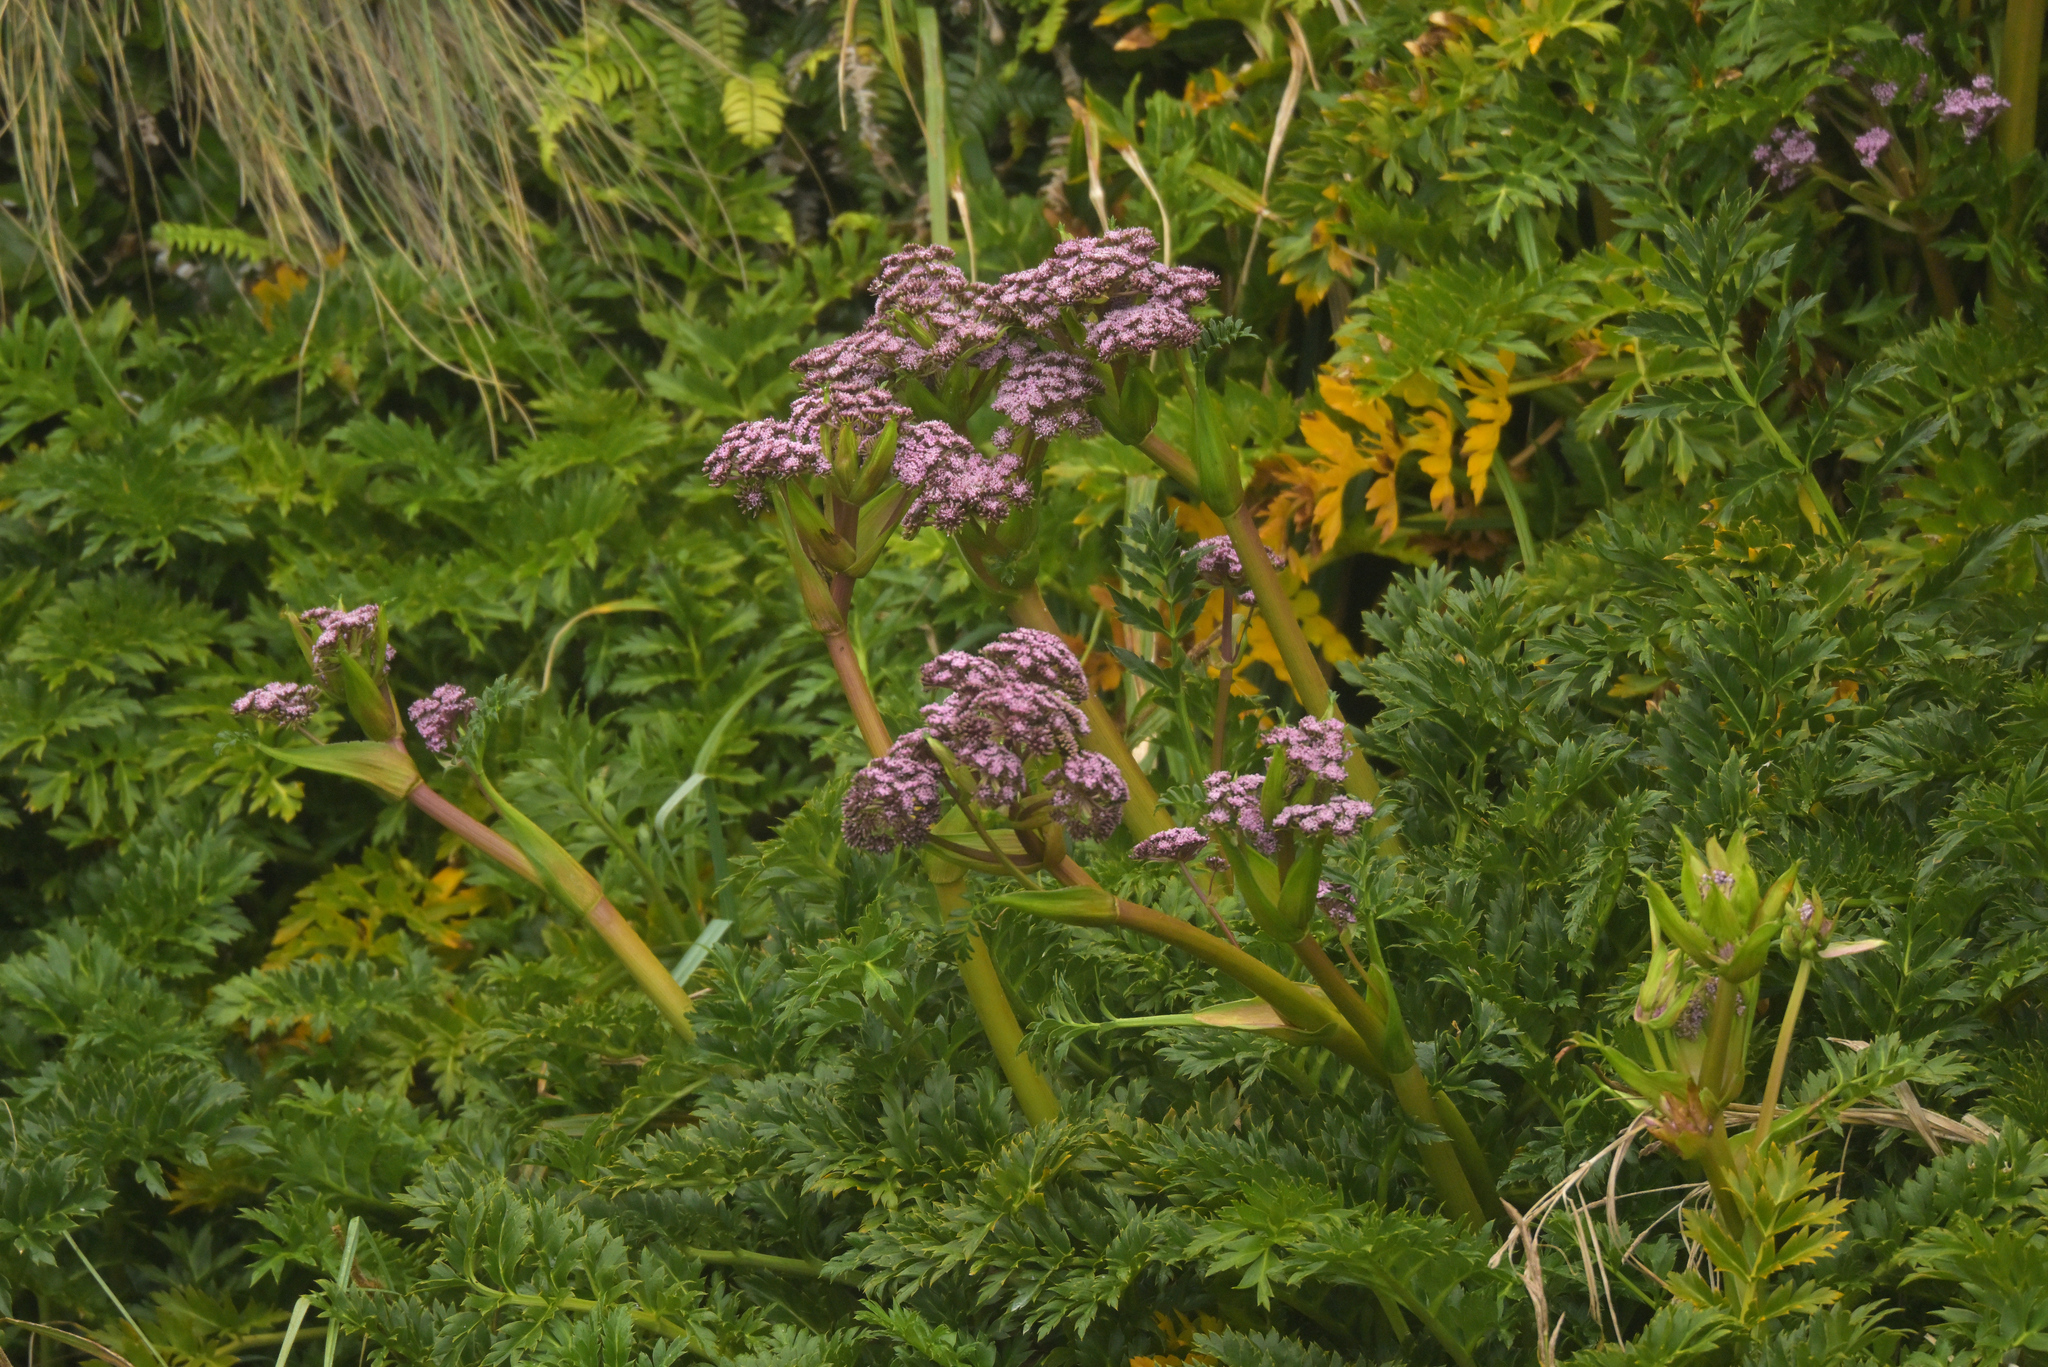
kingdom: Plantae
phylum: Tracheophyta
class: Magnoliopsida
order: Apiales
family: Apiaceae
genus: Anisotome
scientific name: Anisotome latifolia
